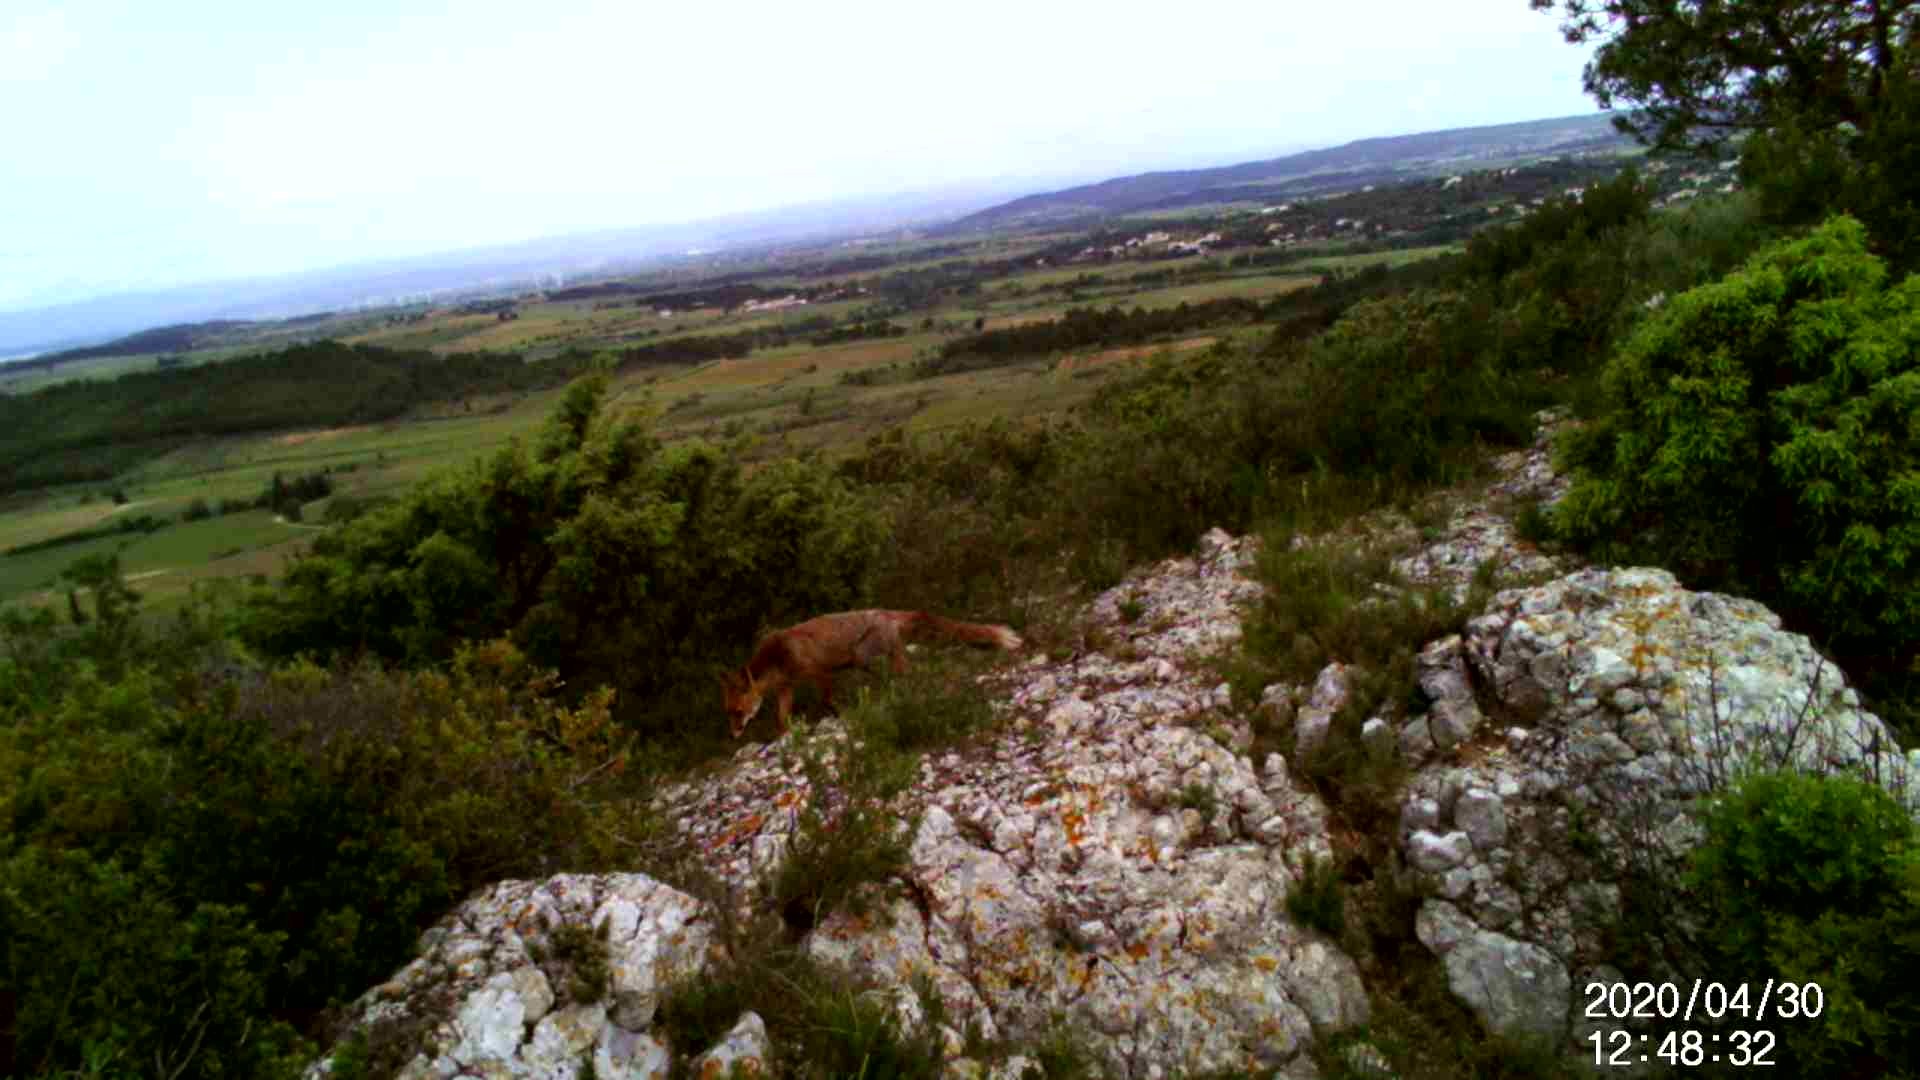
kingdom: Animalia
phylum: Chordata
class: Mammalia
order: Carnivora
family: Canidae
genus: Vulpes
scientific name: Vulpes vulpes
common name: Red fox
